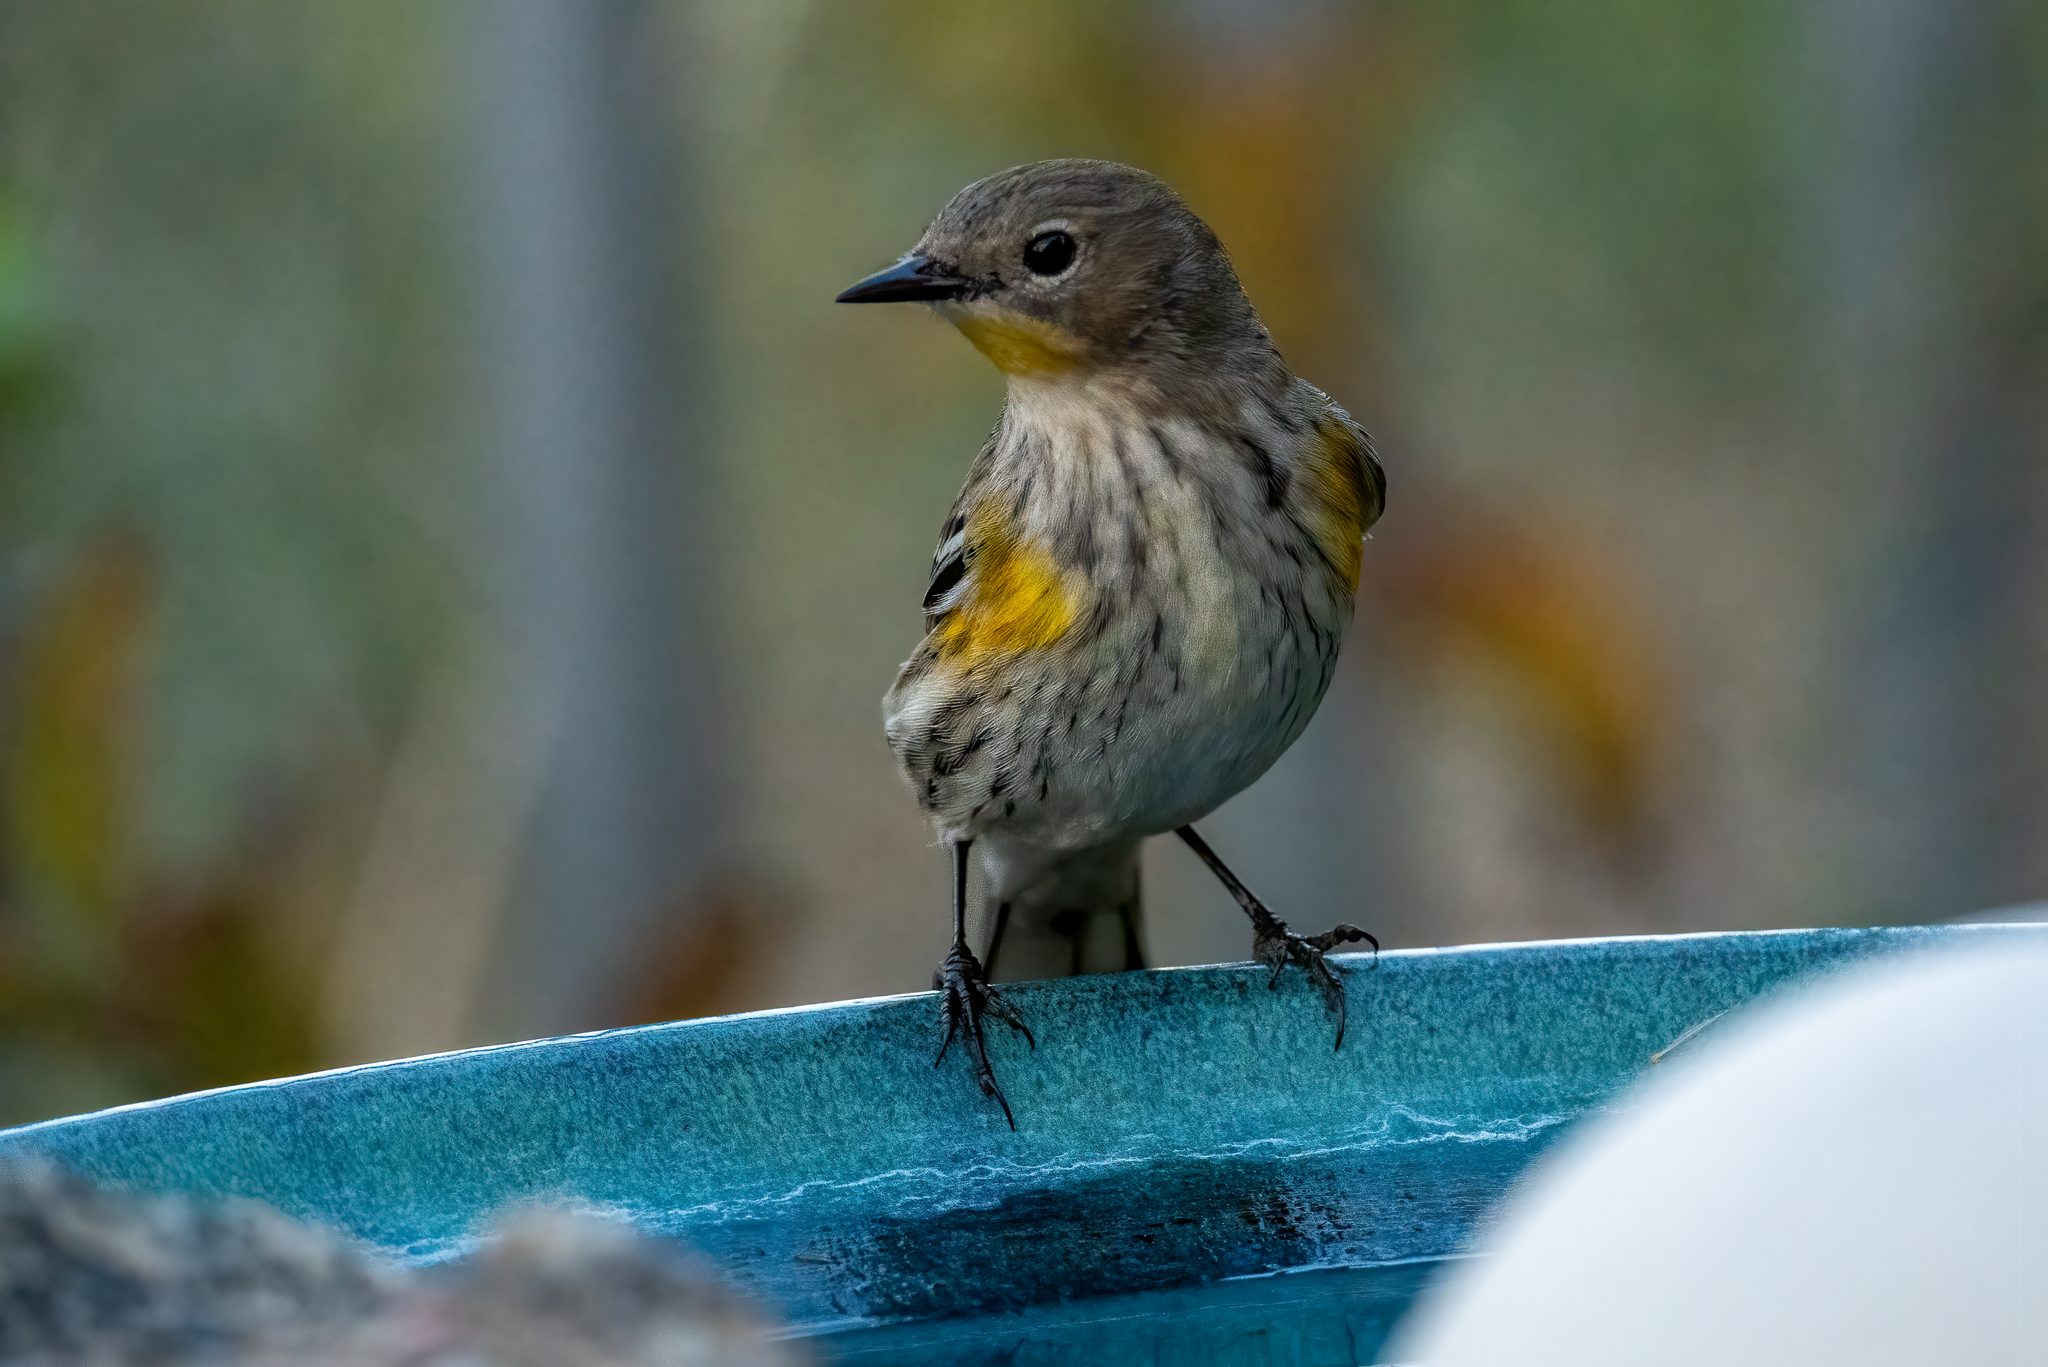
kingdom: Animalia
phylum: Chordata
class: Aves
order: Passeriformes
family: Parulidae
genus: Setophaga
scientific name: Setophaga coronata
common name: Myrtle warbler
